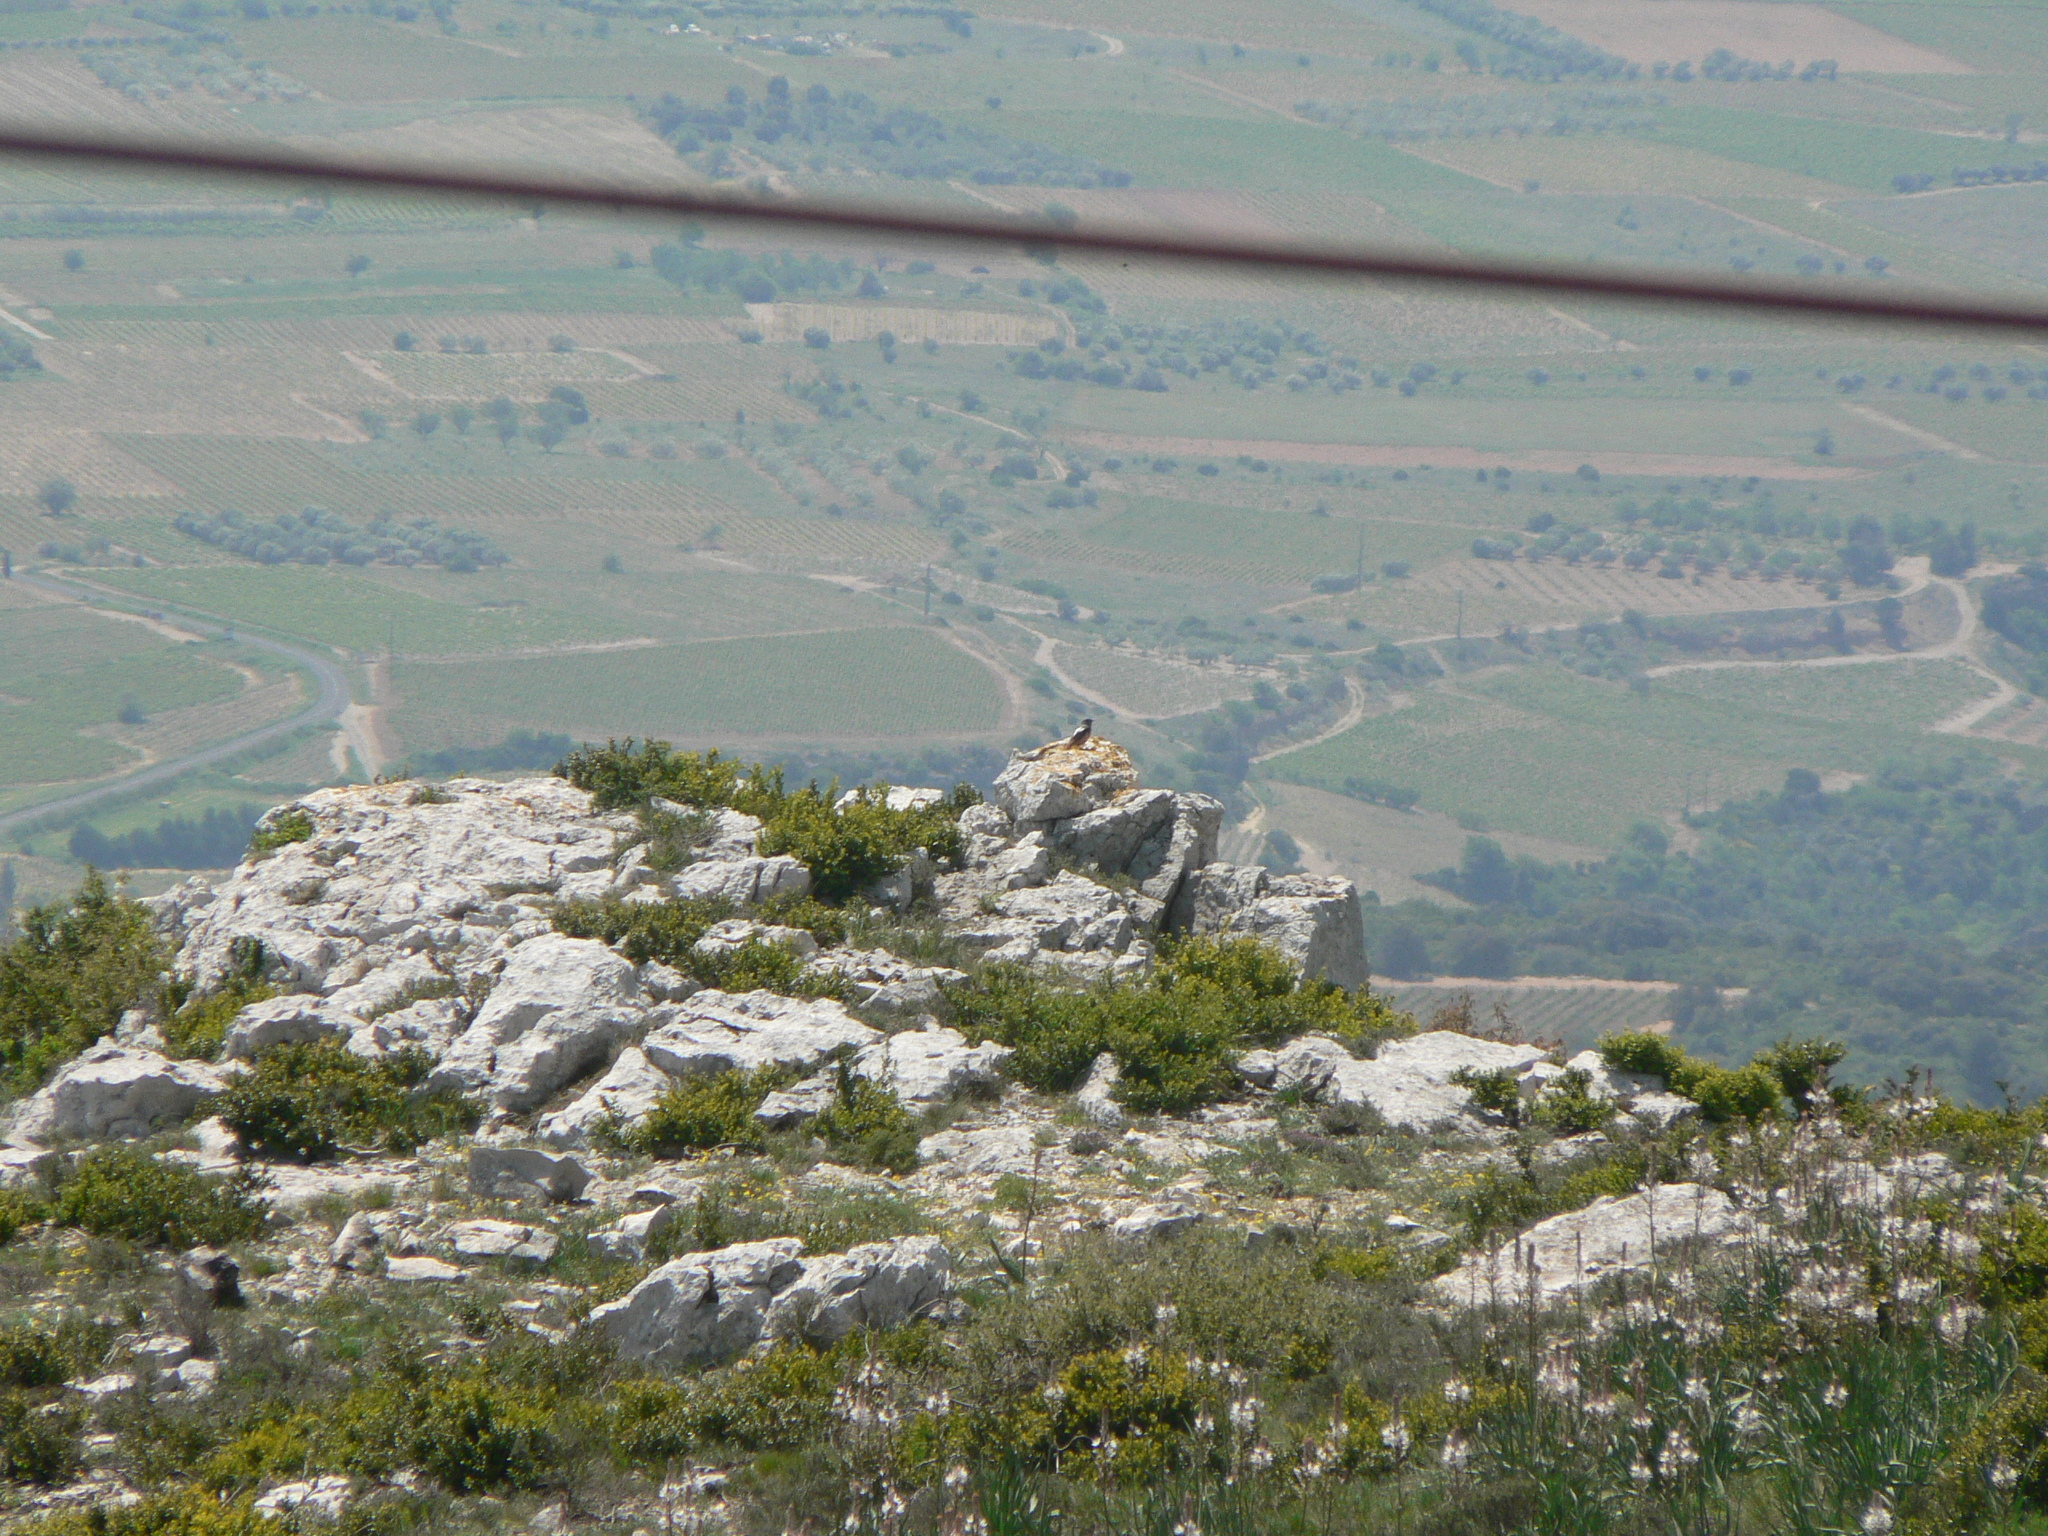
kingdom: Animalia
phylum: Chordata
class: Aves
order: Passeriformes
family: Muscicapidae
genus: Monticola
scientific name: Monticola saxatilis
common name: Rufous-tailed rock thrush
